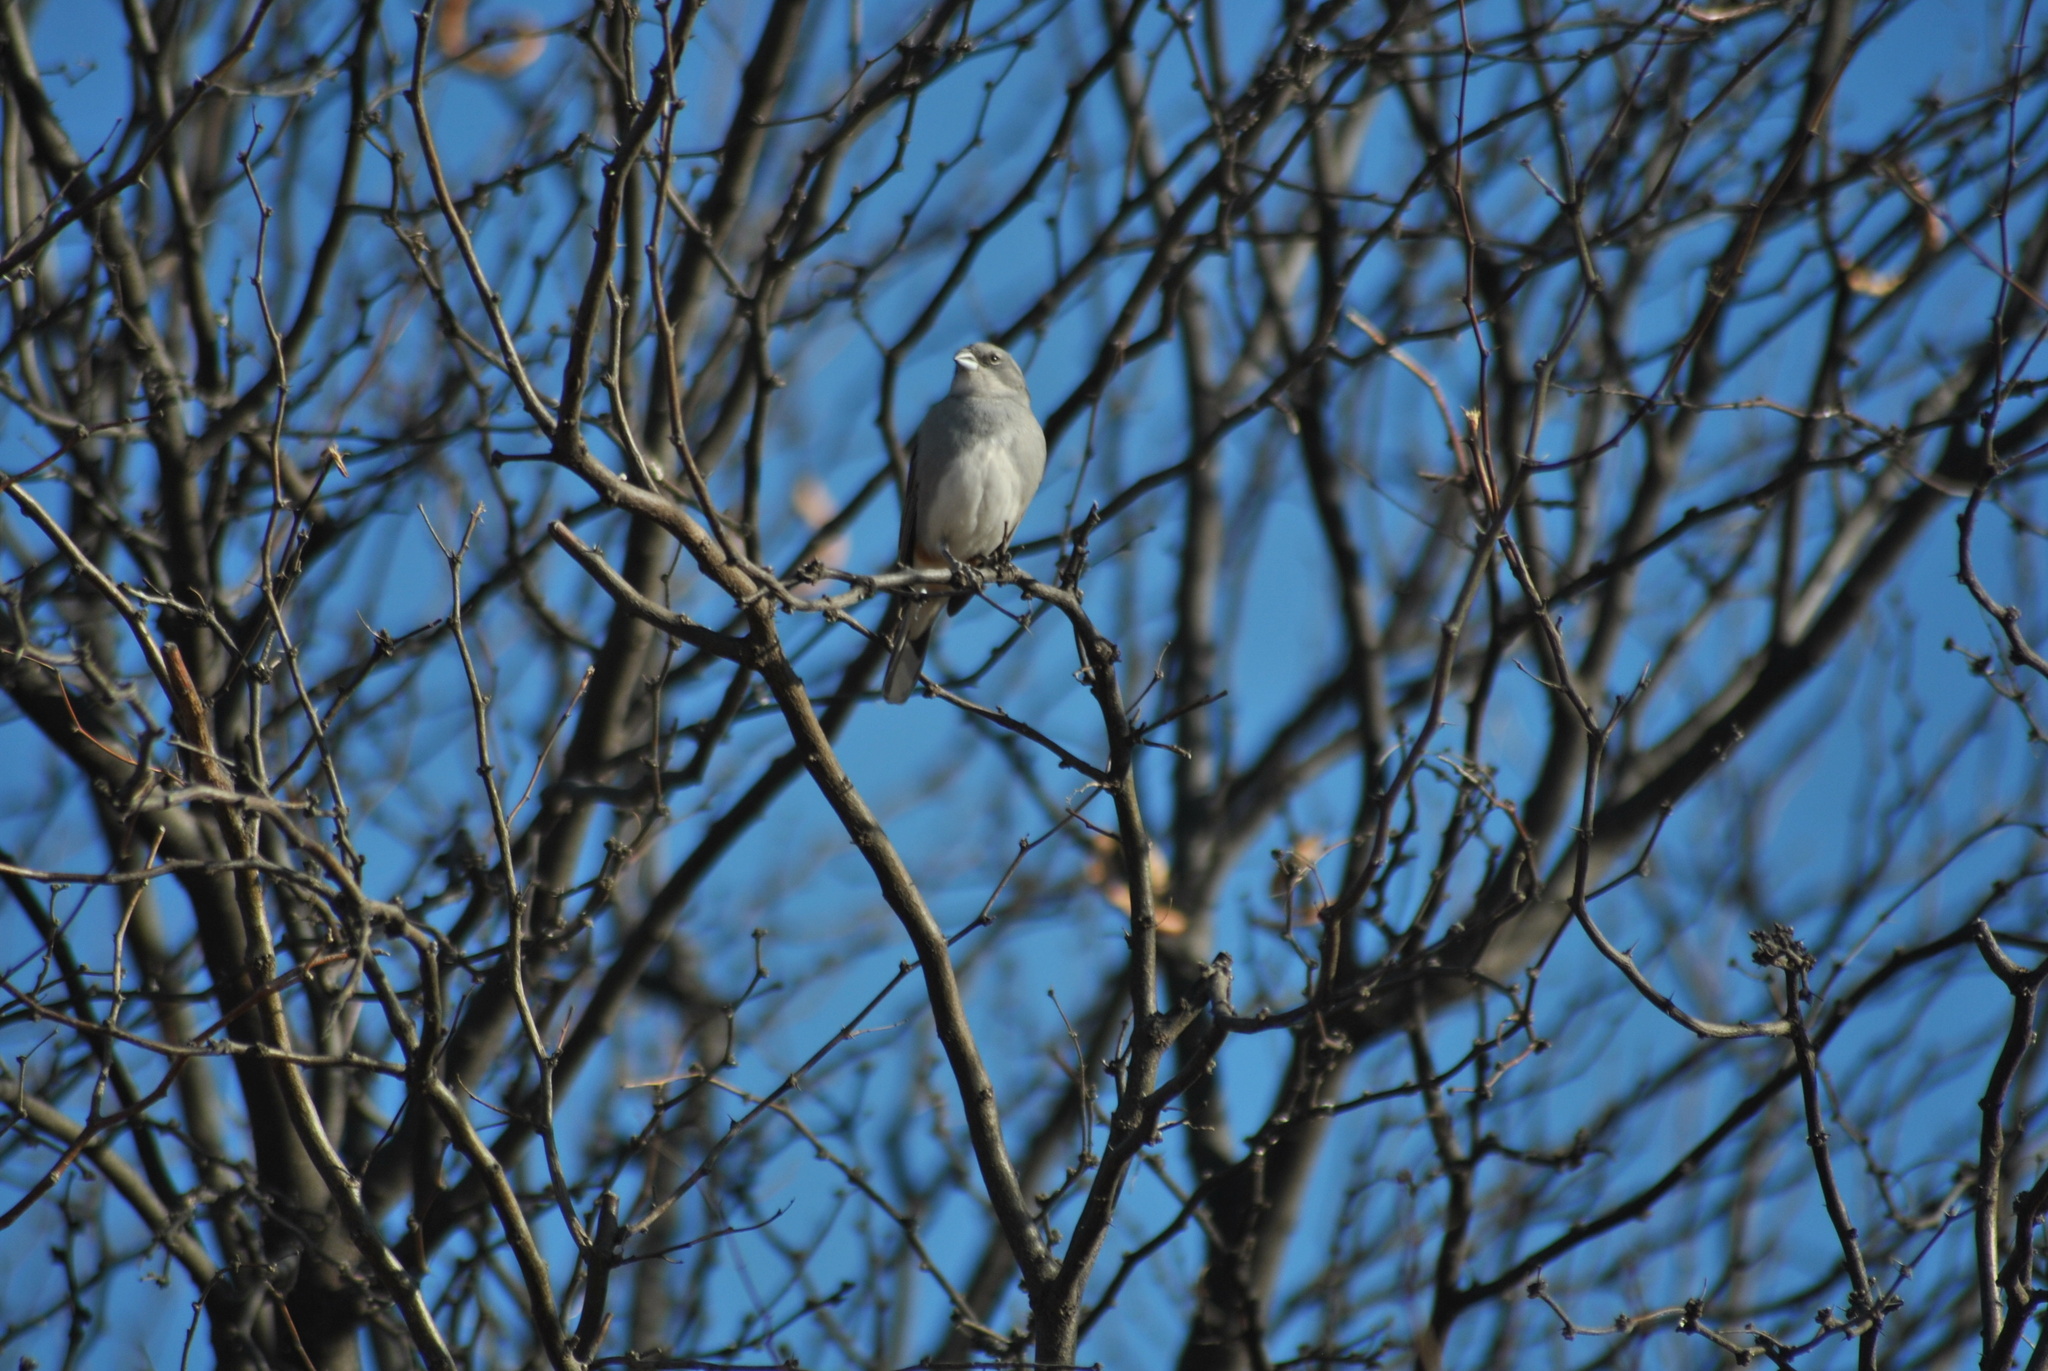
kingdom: Animalia
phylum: Chordata
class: Aves
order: Passeriformes
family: Thraupidae
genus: Diuca
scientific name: Diuca diuca
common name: Common diuca finch
